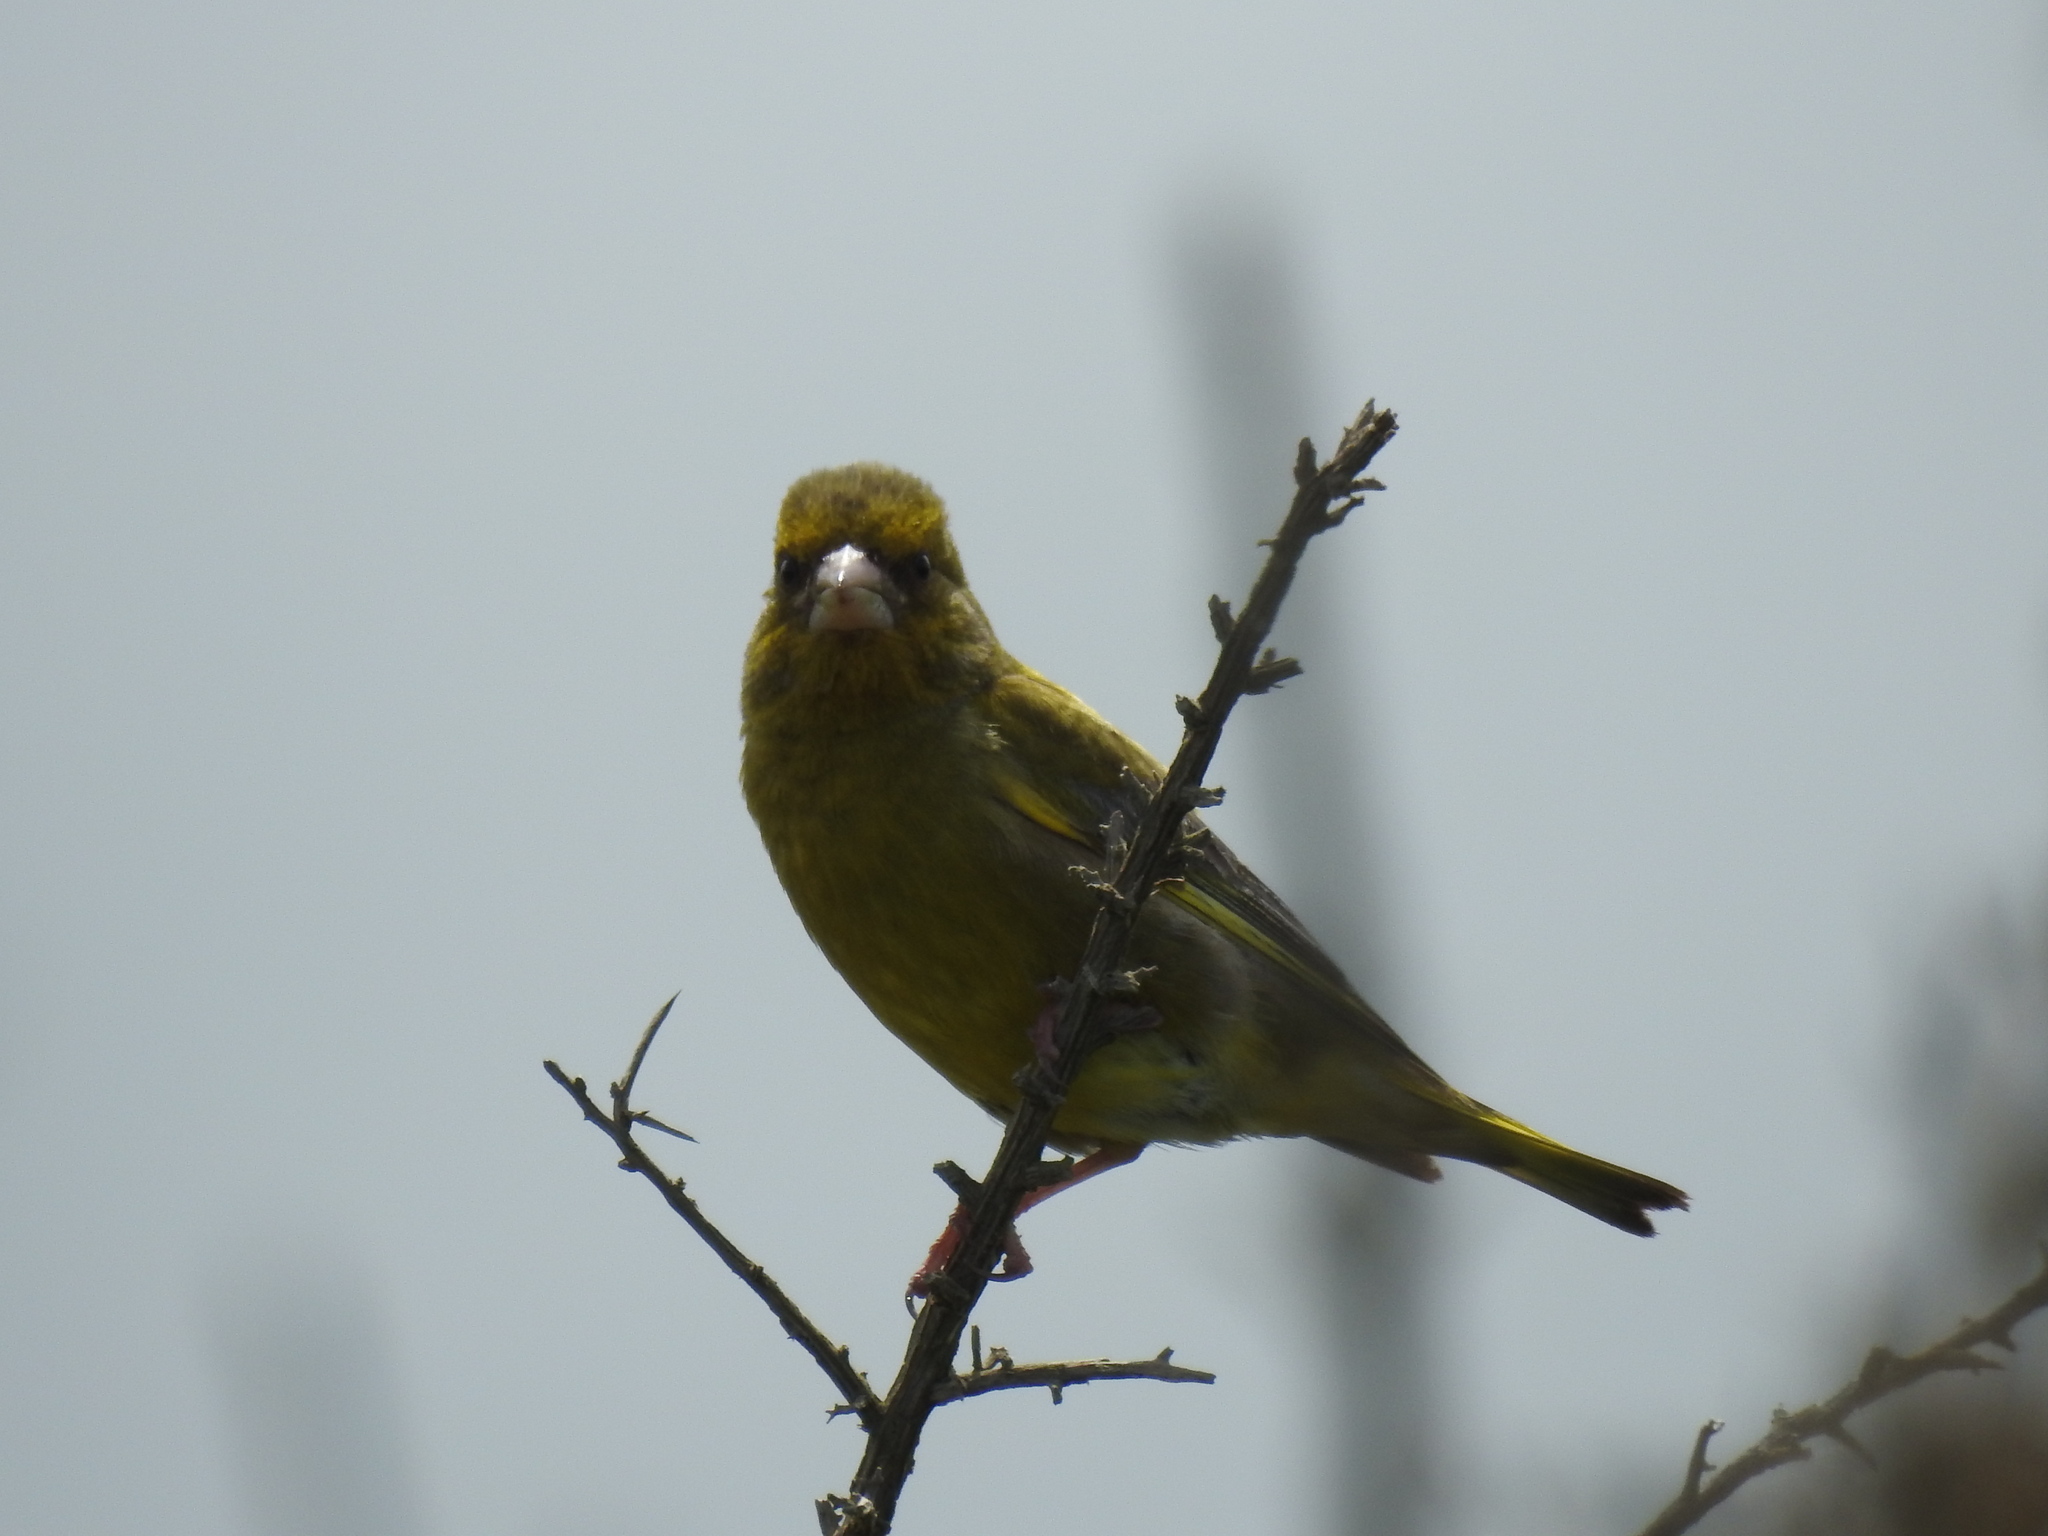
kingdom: Plantae
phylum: Tracheophyta
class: Liliopsida
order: Poales
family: Poaceae
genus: Chloris
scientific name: Chloris chloris
